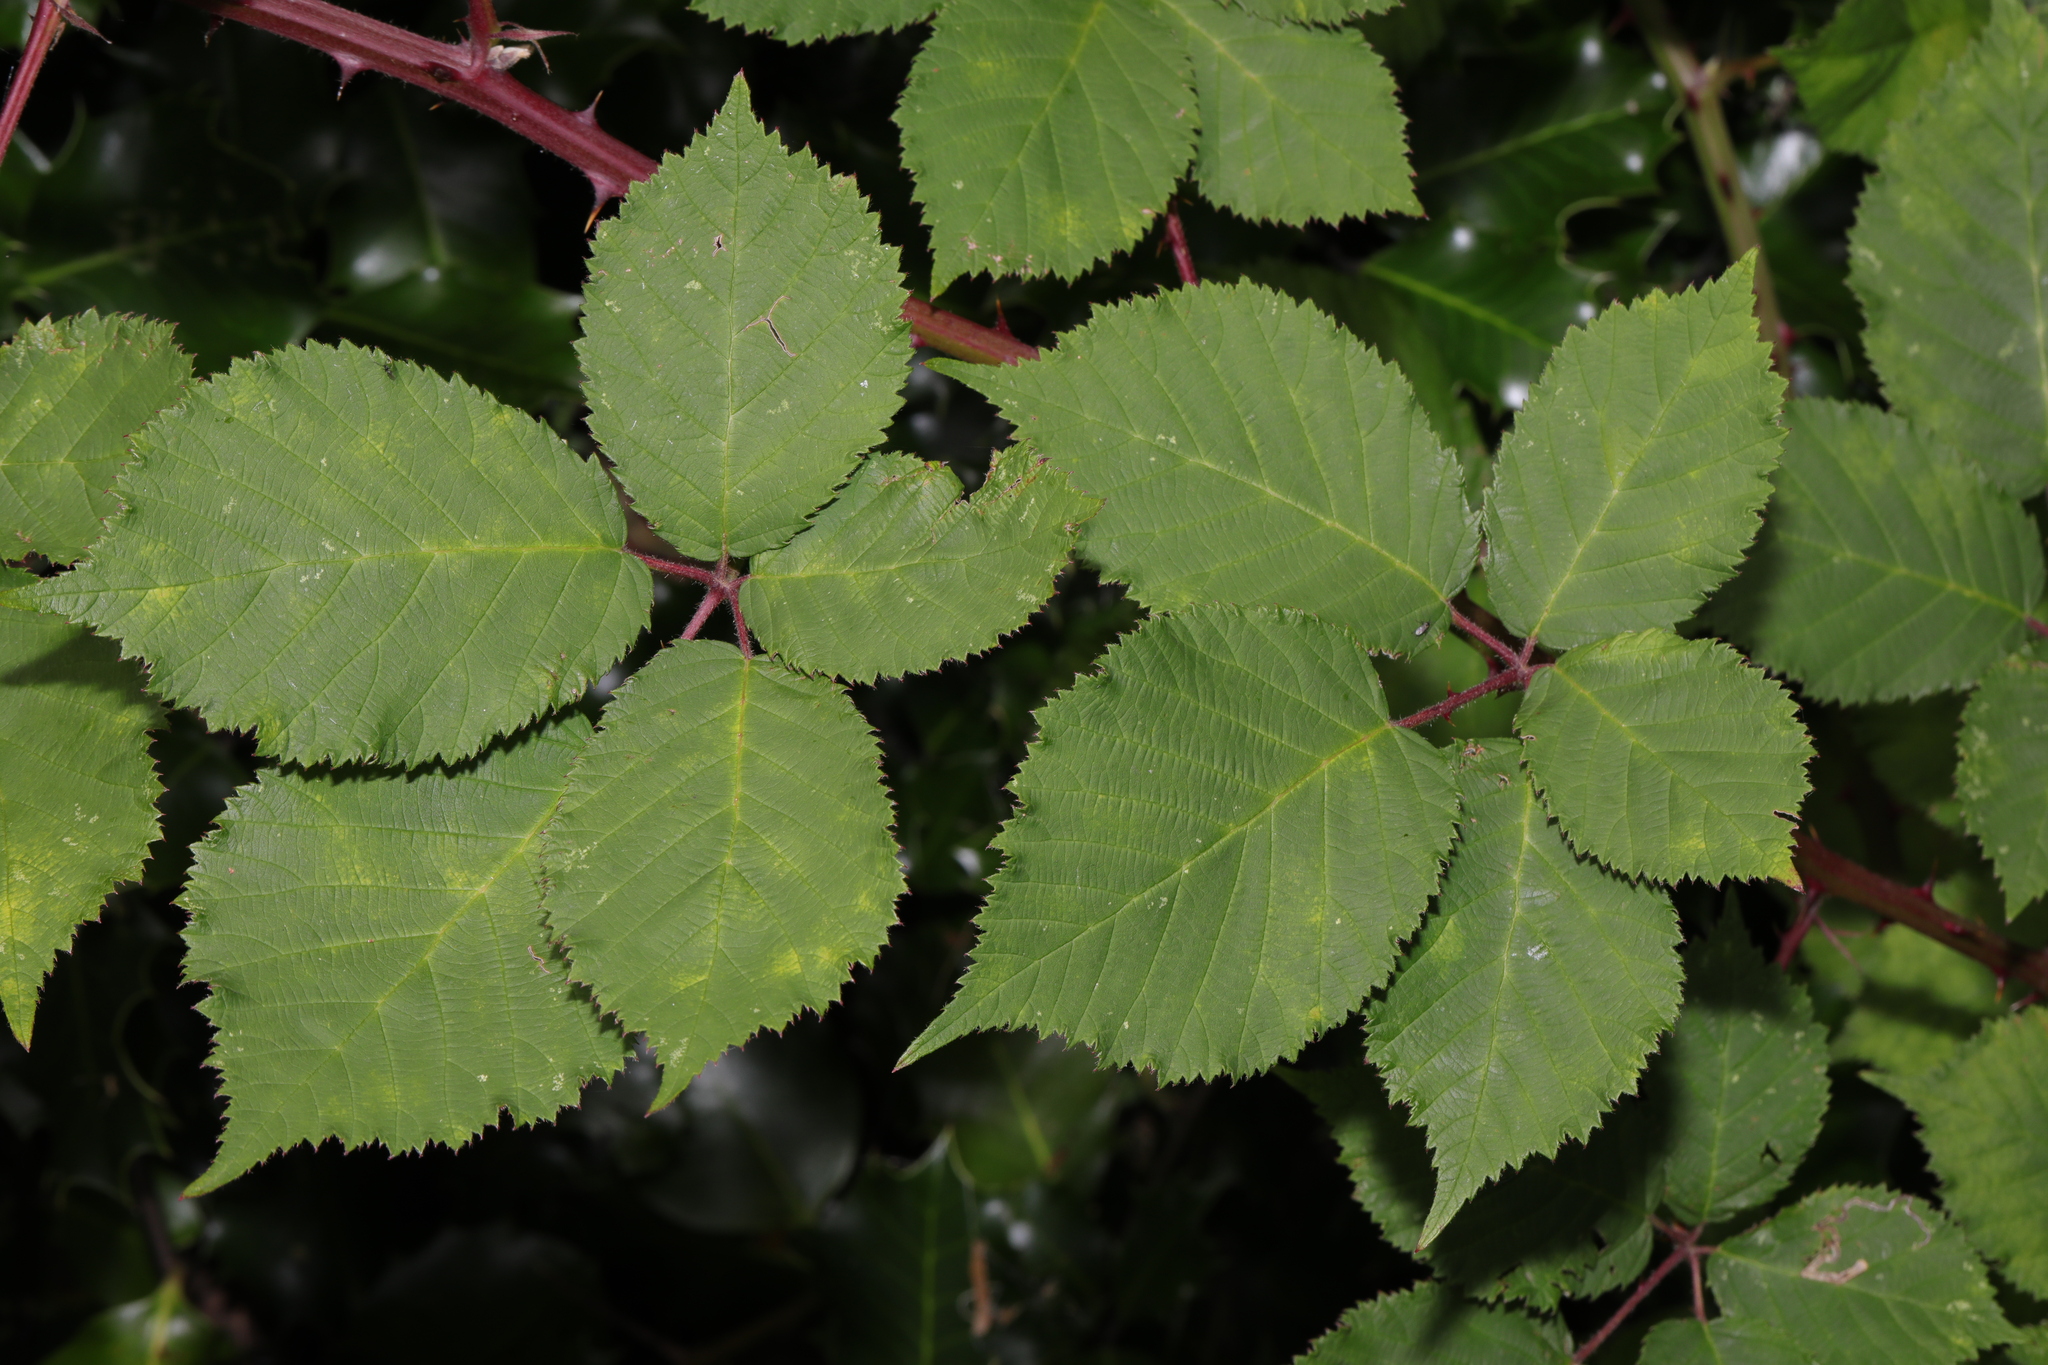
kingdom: Plantae
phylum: Tracheophyta
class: Magnoliopsida
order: Rosales
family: Rosaceae
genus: Rubus
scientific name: Rubus armeniacus
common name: Himalayan blackberry
